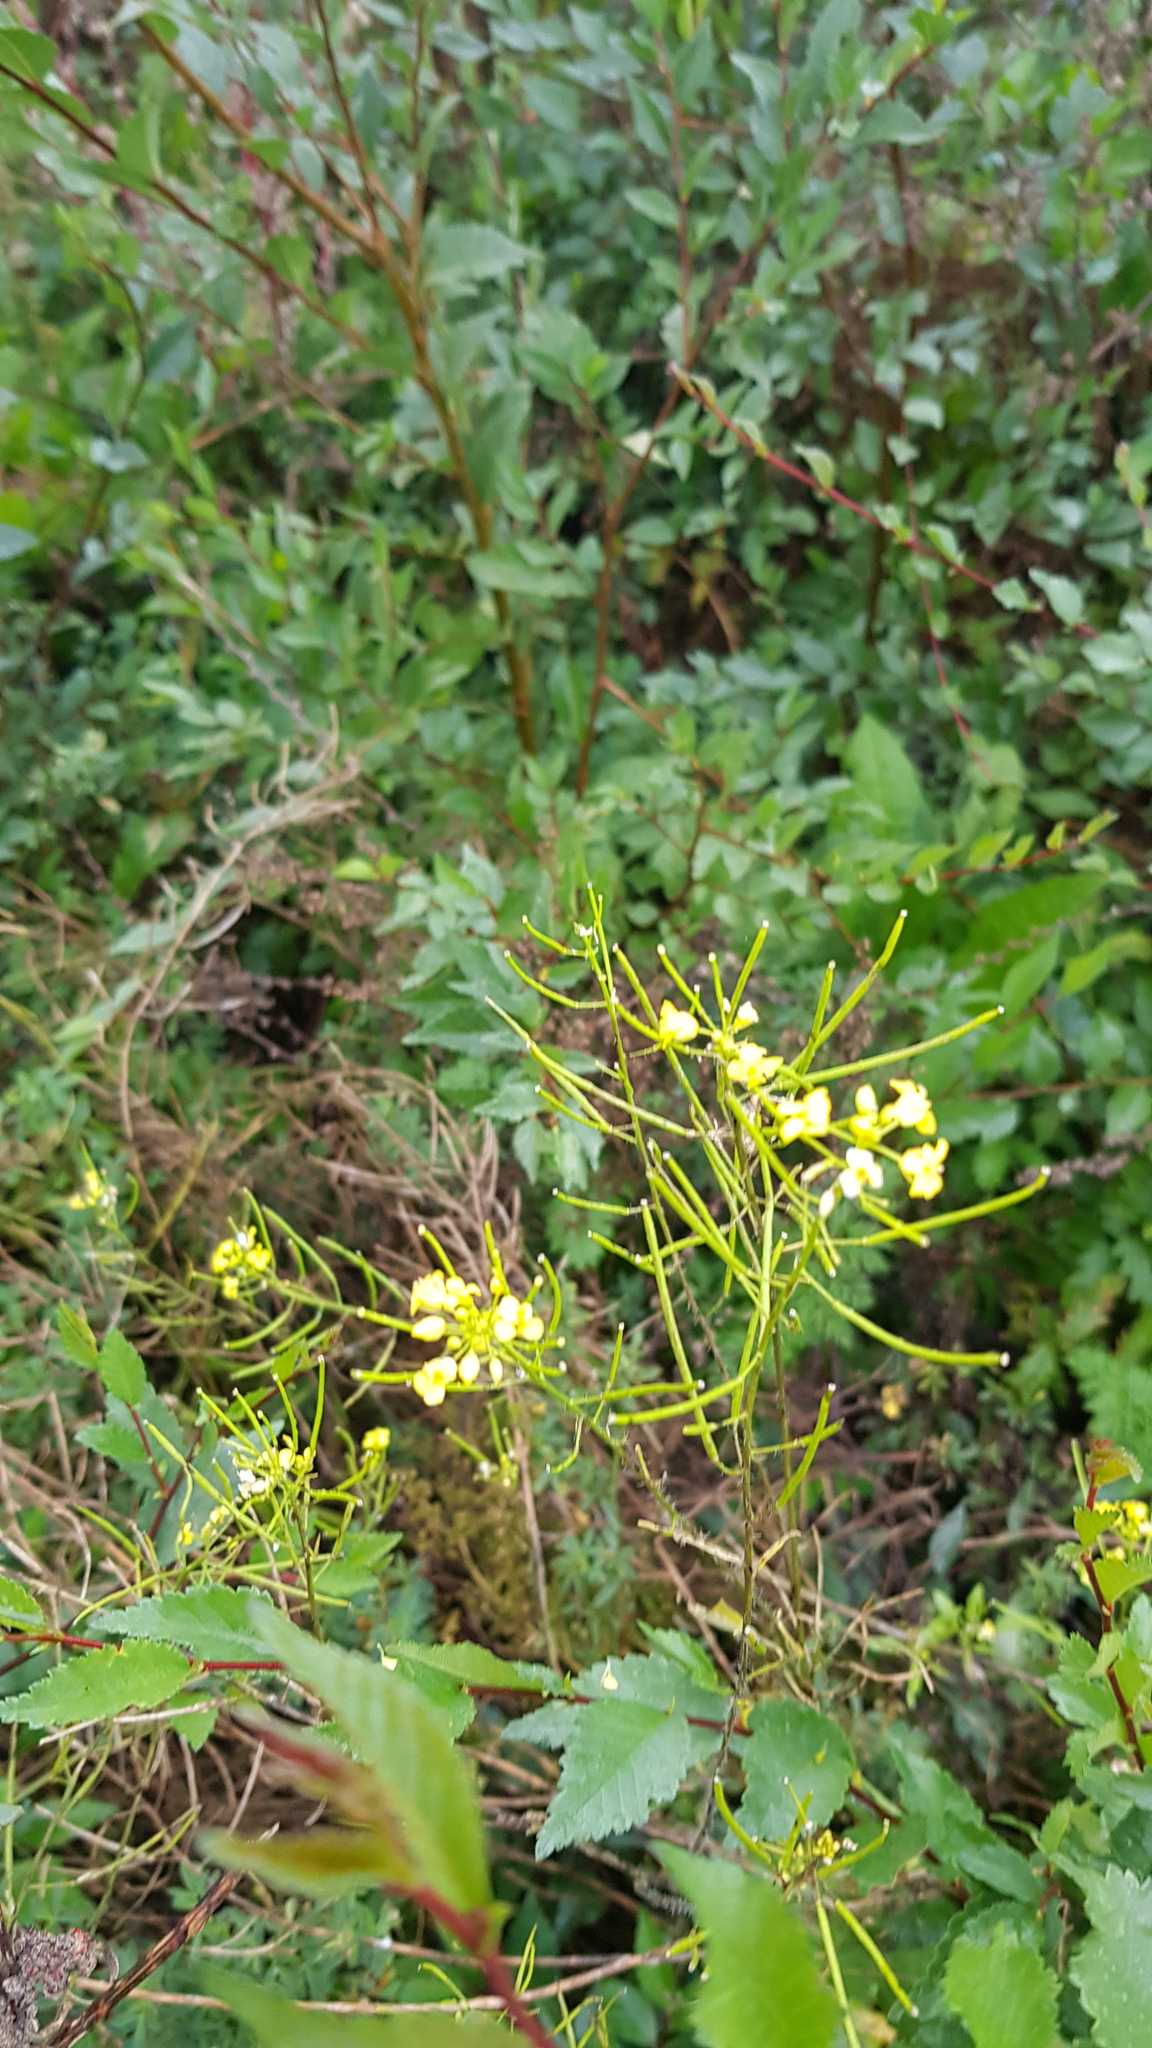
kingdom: Plantae
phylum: Tracheophyta
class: Magnoliopsida
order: Brassicales
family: Brassicaceae
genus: Sisymbrium
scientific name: Sisymbrium loeselii
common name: False london-rocket
